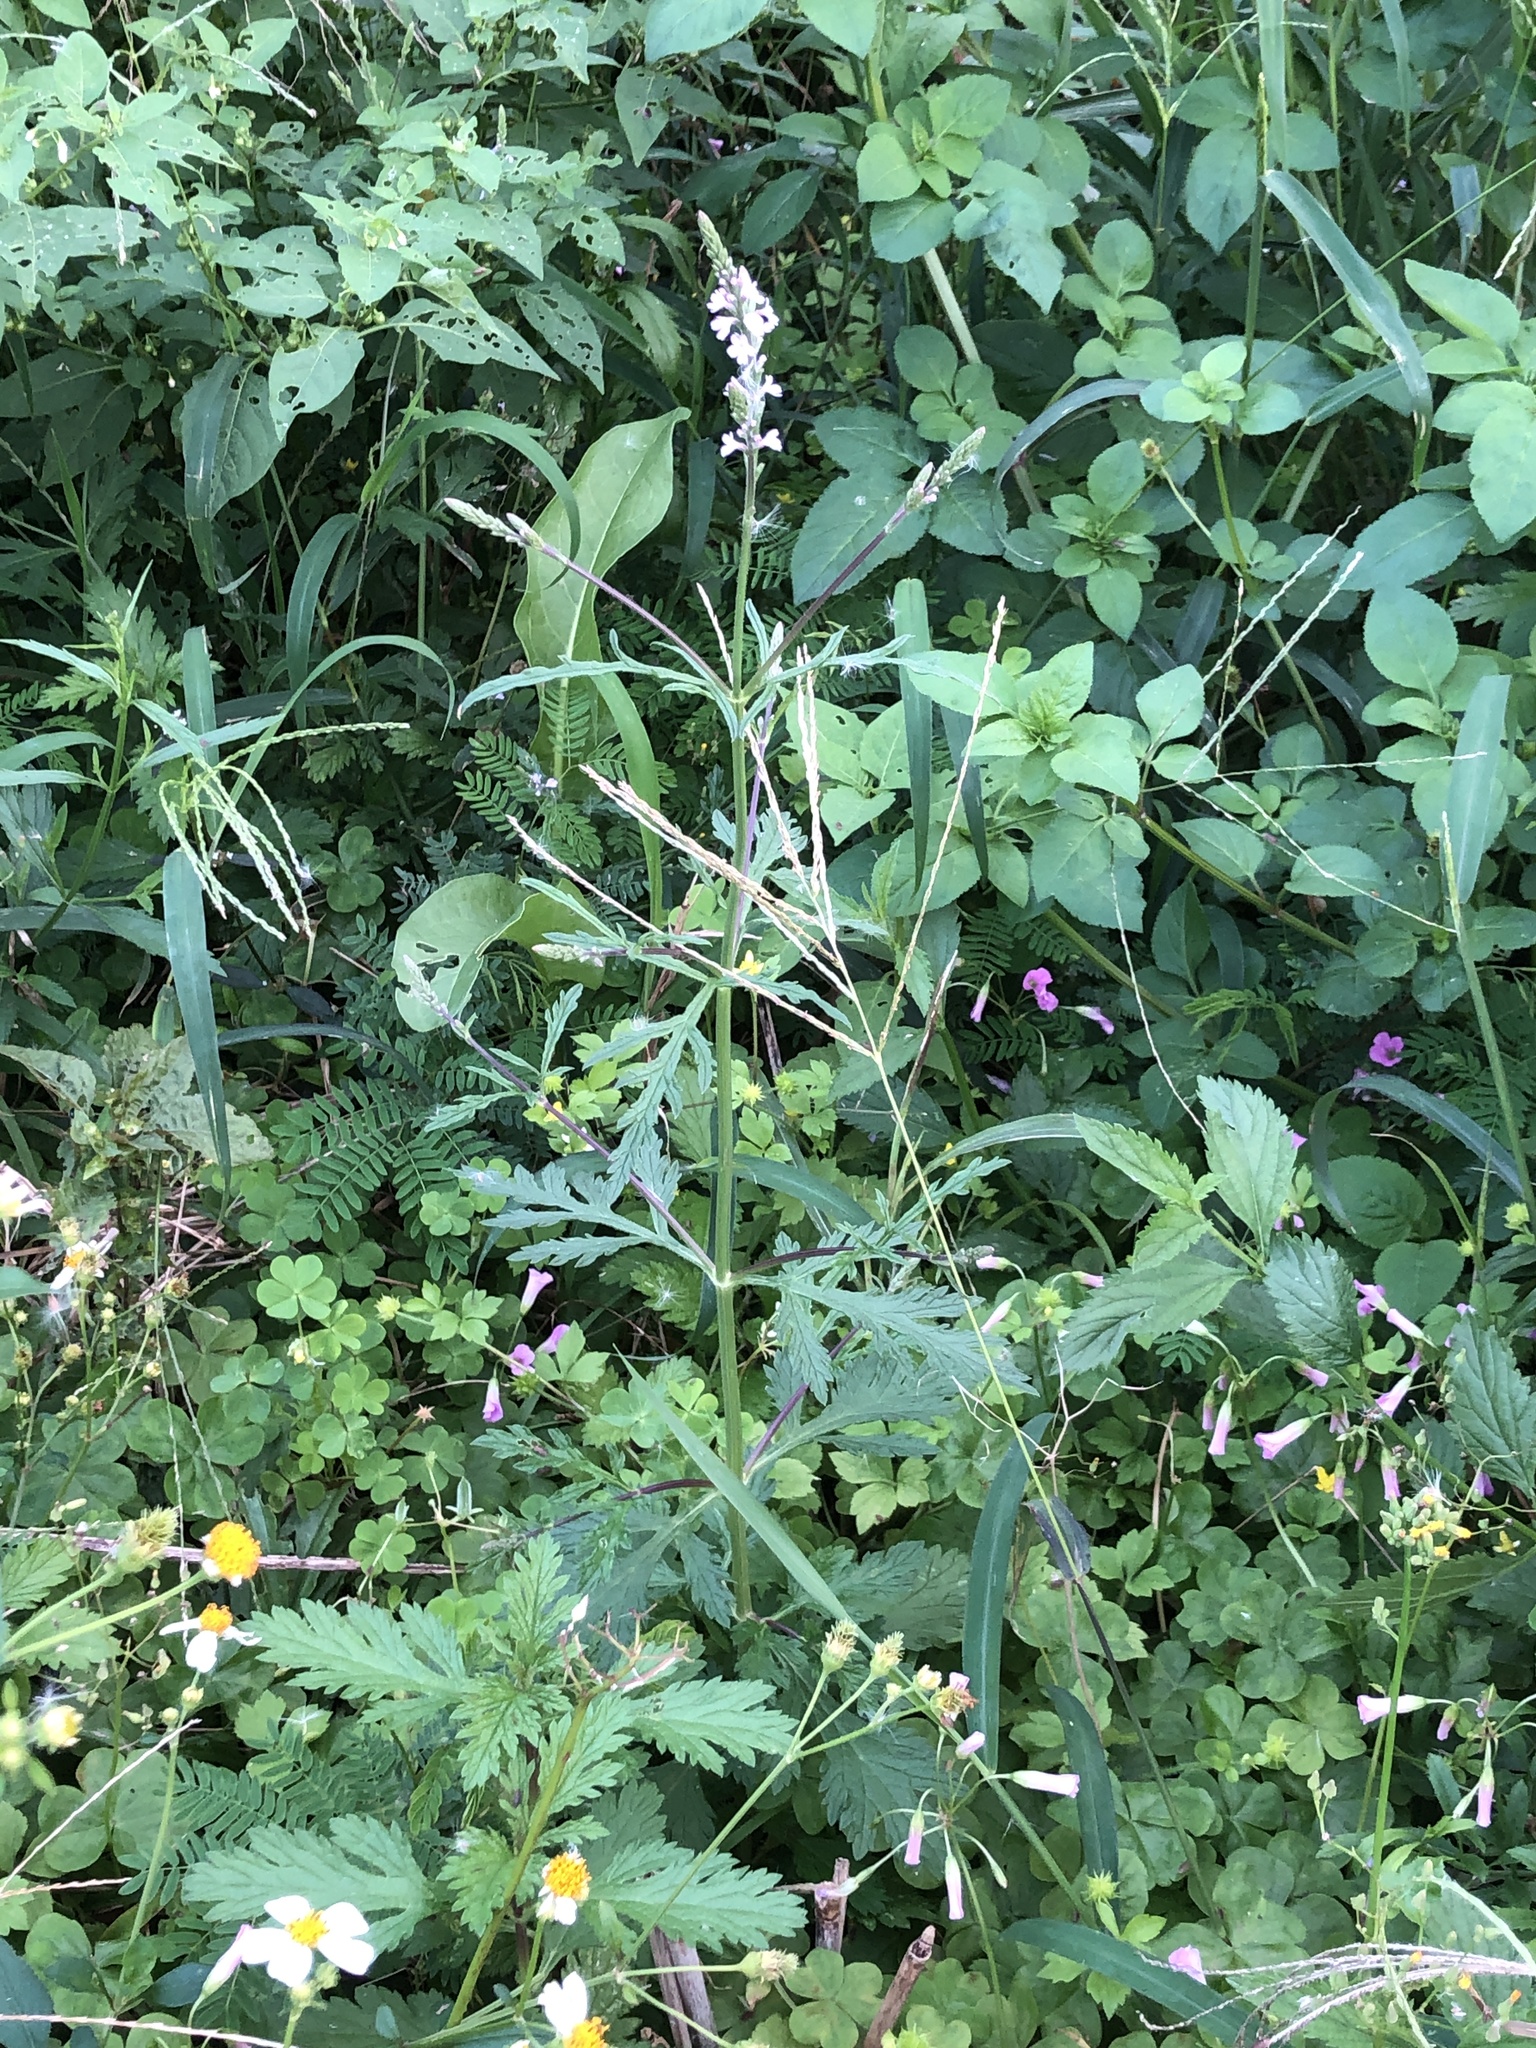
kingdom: Plantae
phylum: Tracheophyta
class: Magnoliopsida
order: Lamiales
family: Verbenaceae
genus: Verbena
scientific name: Verbena officinalis
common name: Vervain
